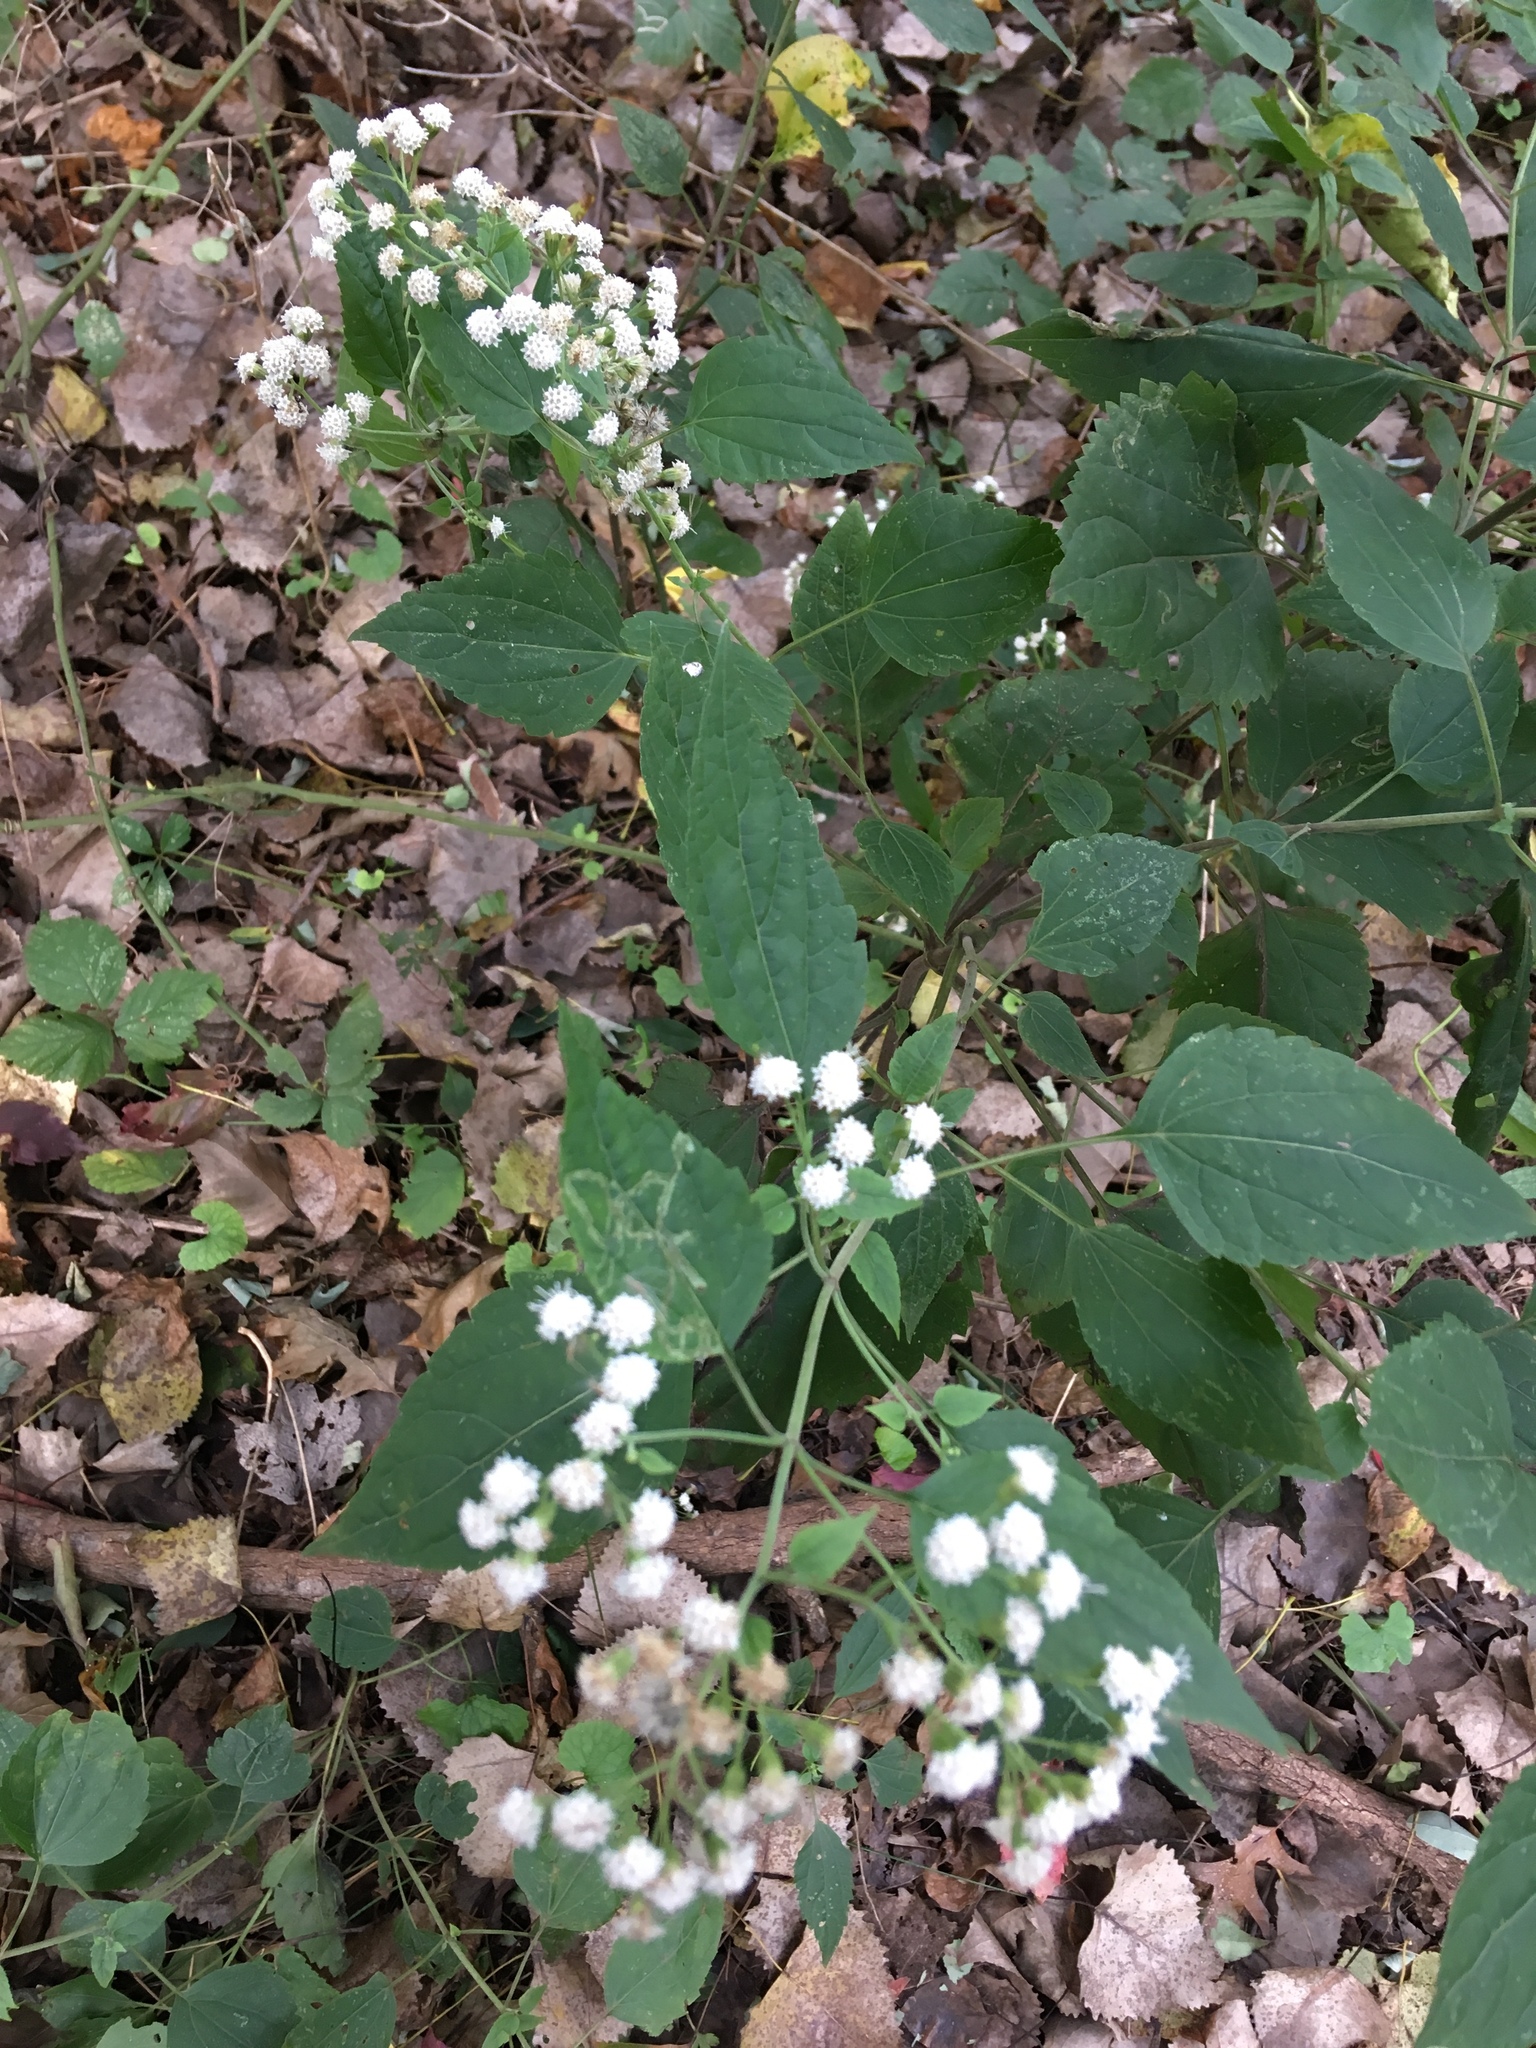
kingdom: Plantae
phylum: Tracheophyta
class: Magnoliopsida
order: Asterales
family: Asteraceae
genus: Ageratina
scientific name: Ageratina altissima
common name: White snakeroot
